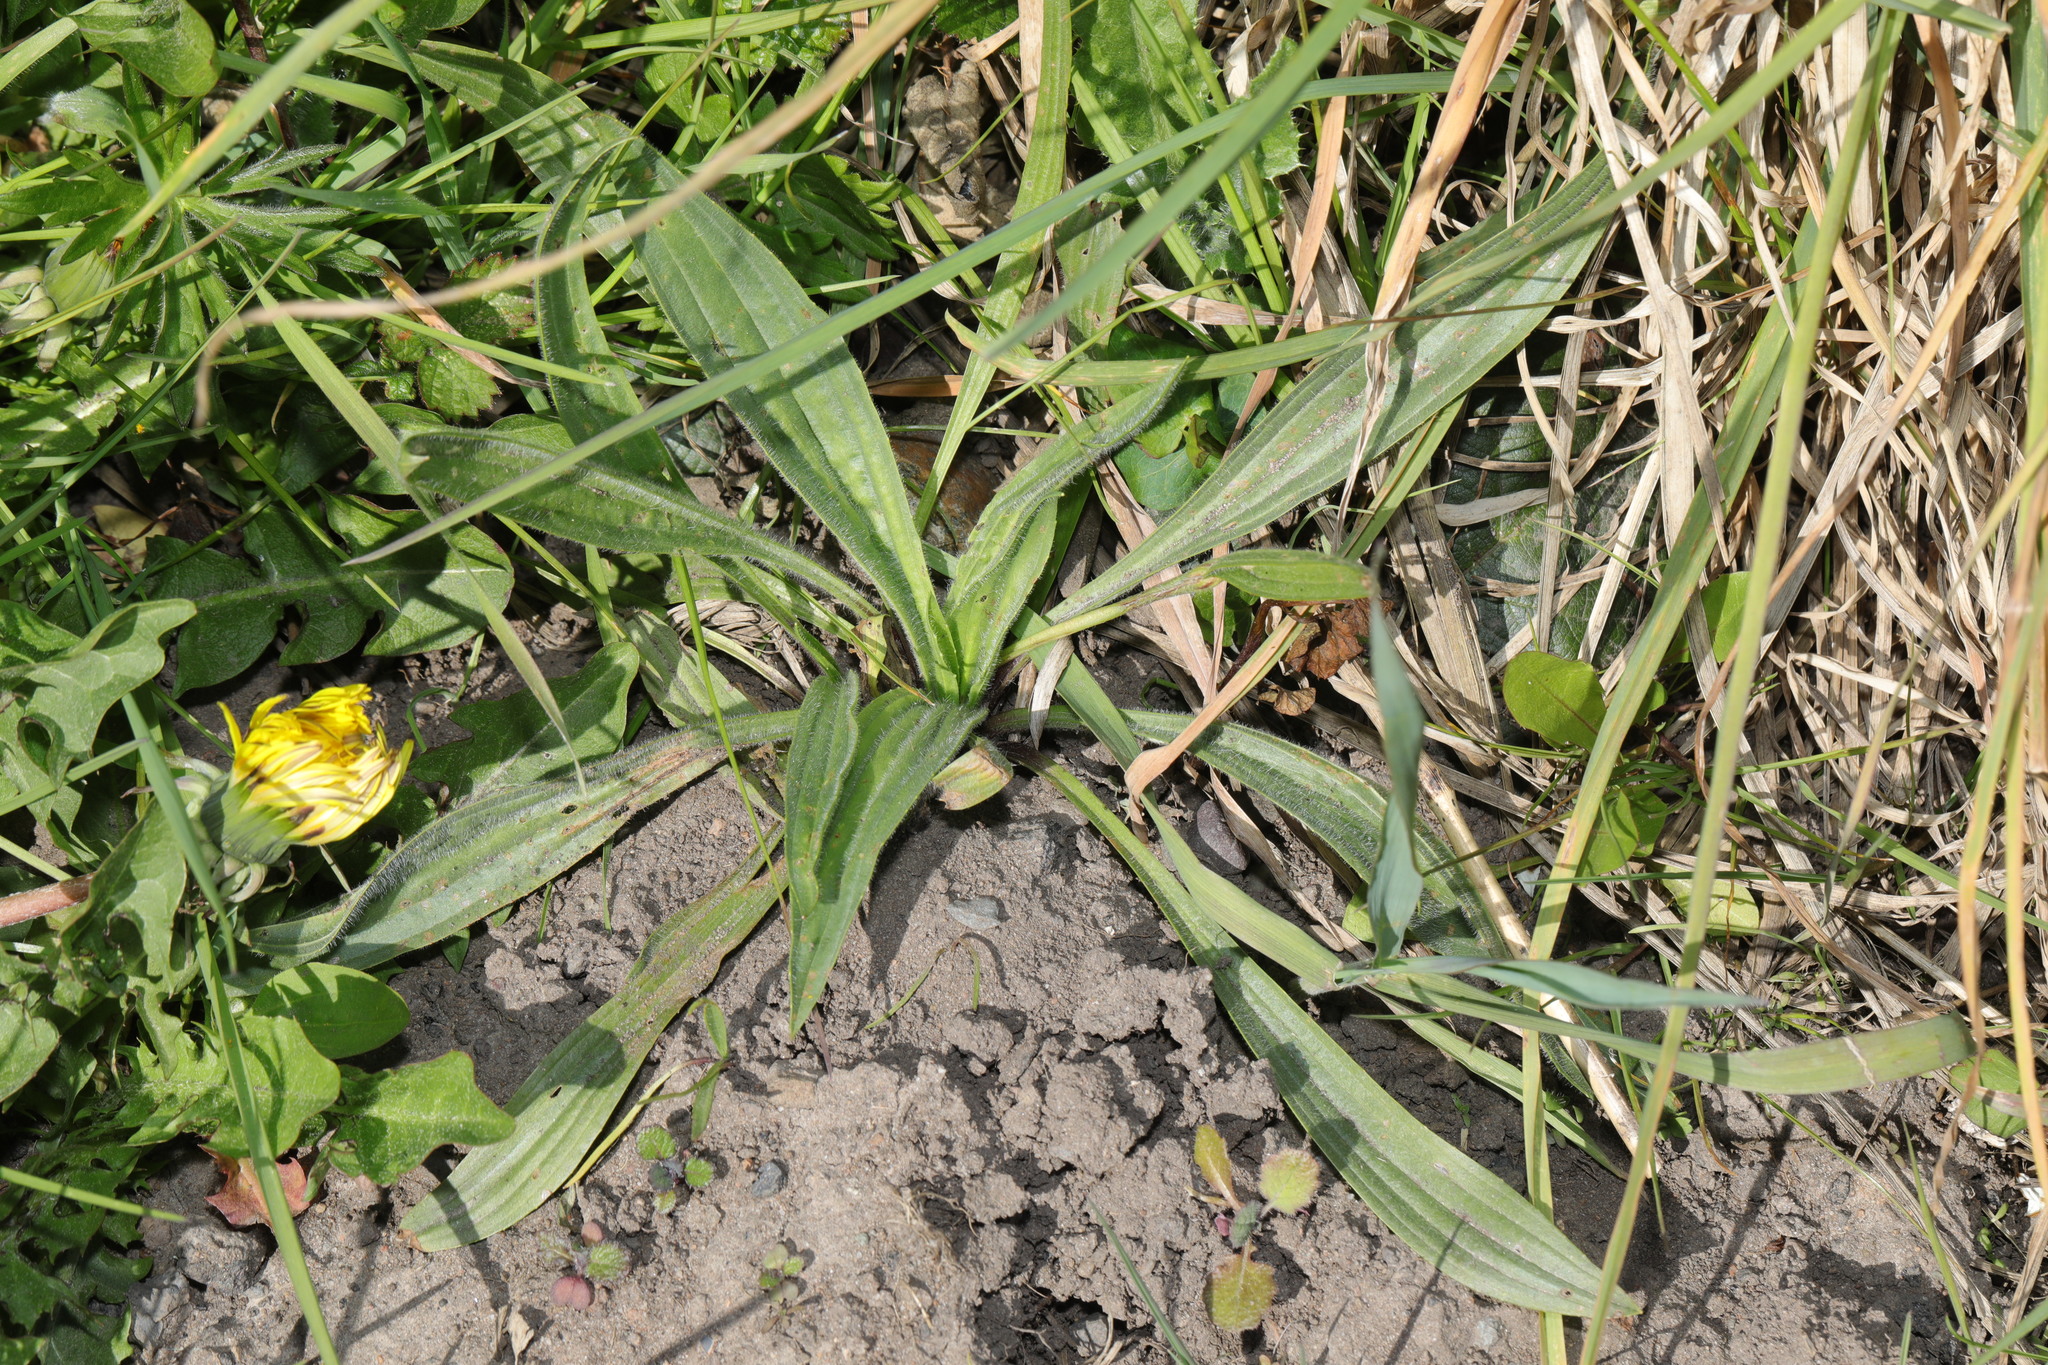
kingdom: Plantae
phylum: Tracheophyta
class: Magnoliopsida
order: Lamiales
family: Plantaginaceae
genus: Plantago
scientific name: Plantago lanceolata
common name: Ribwort plantain
